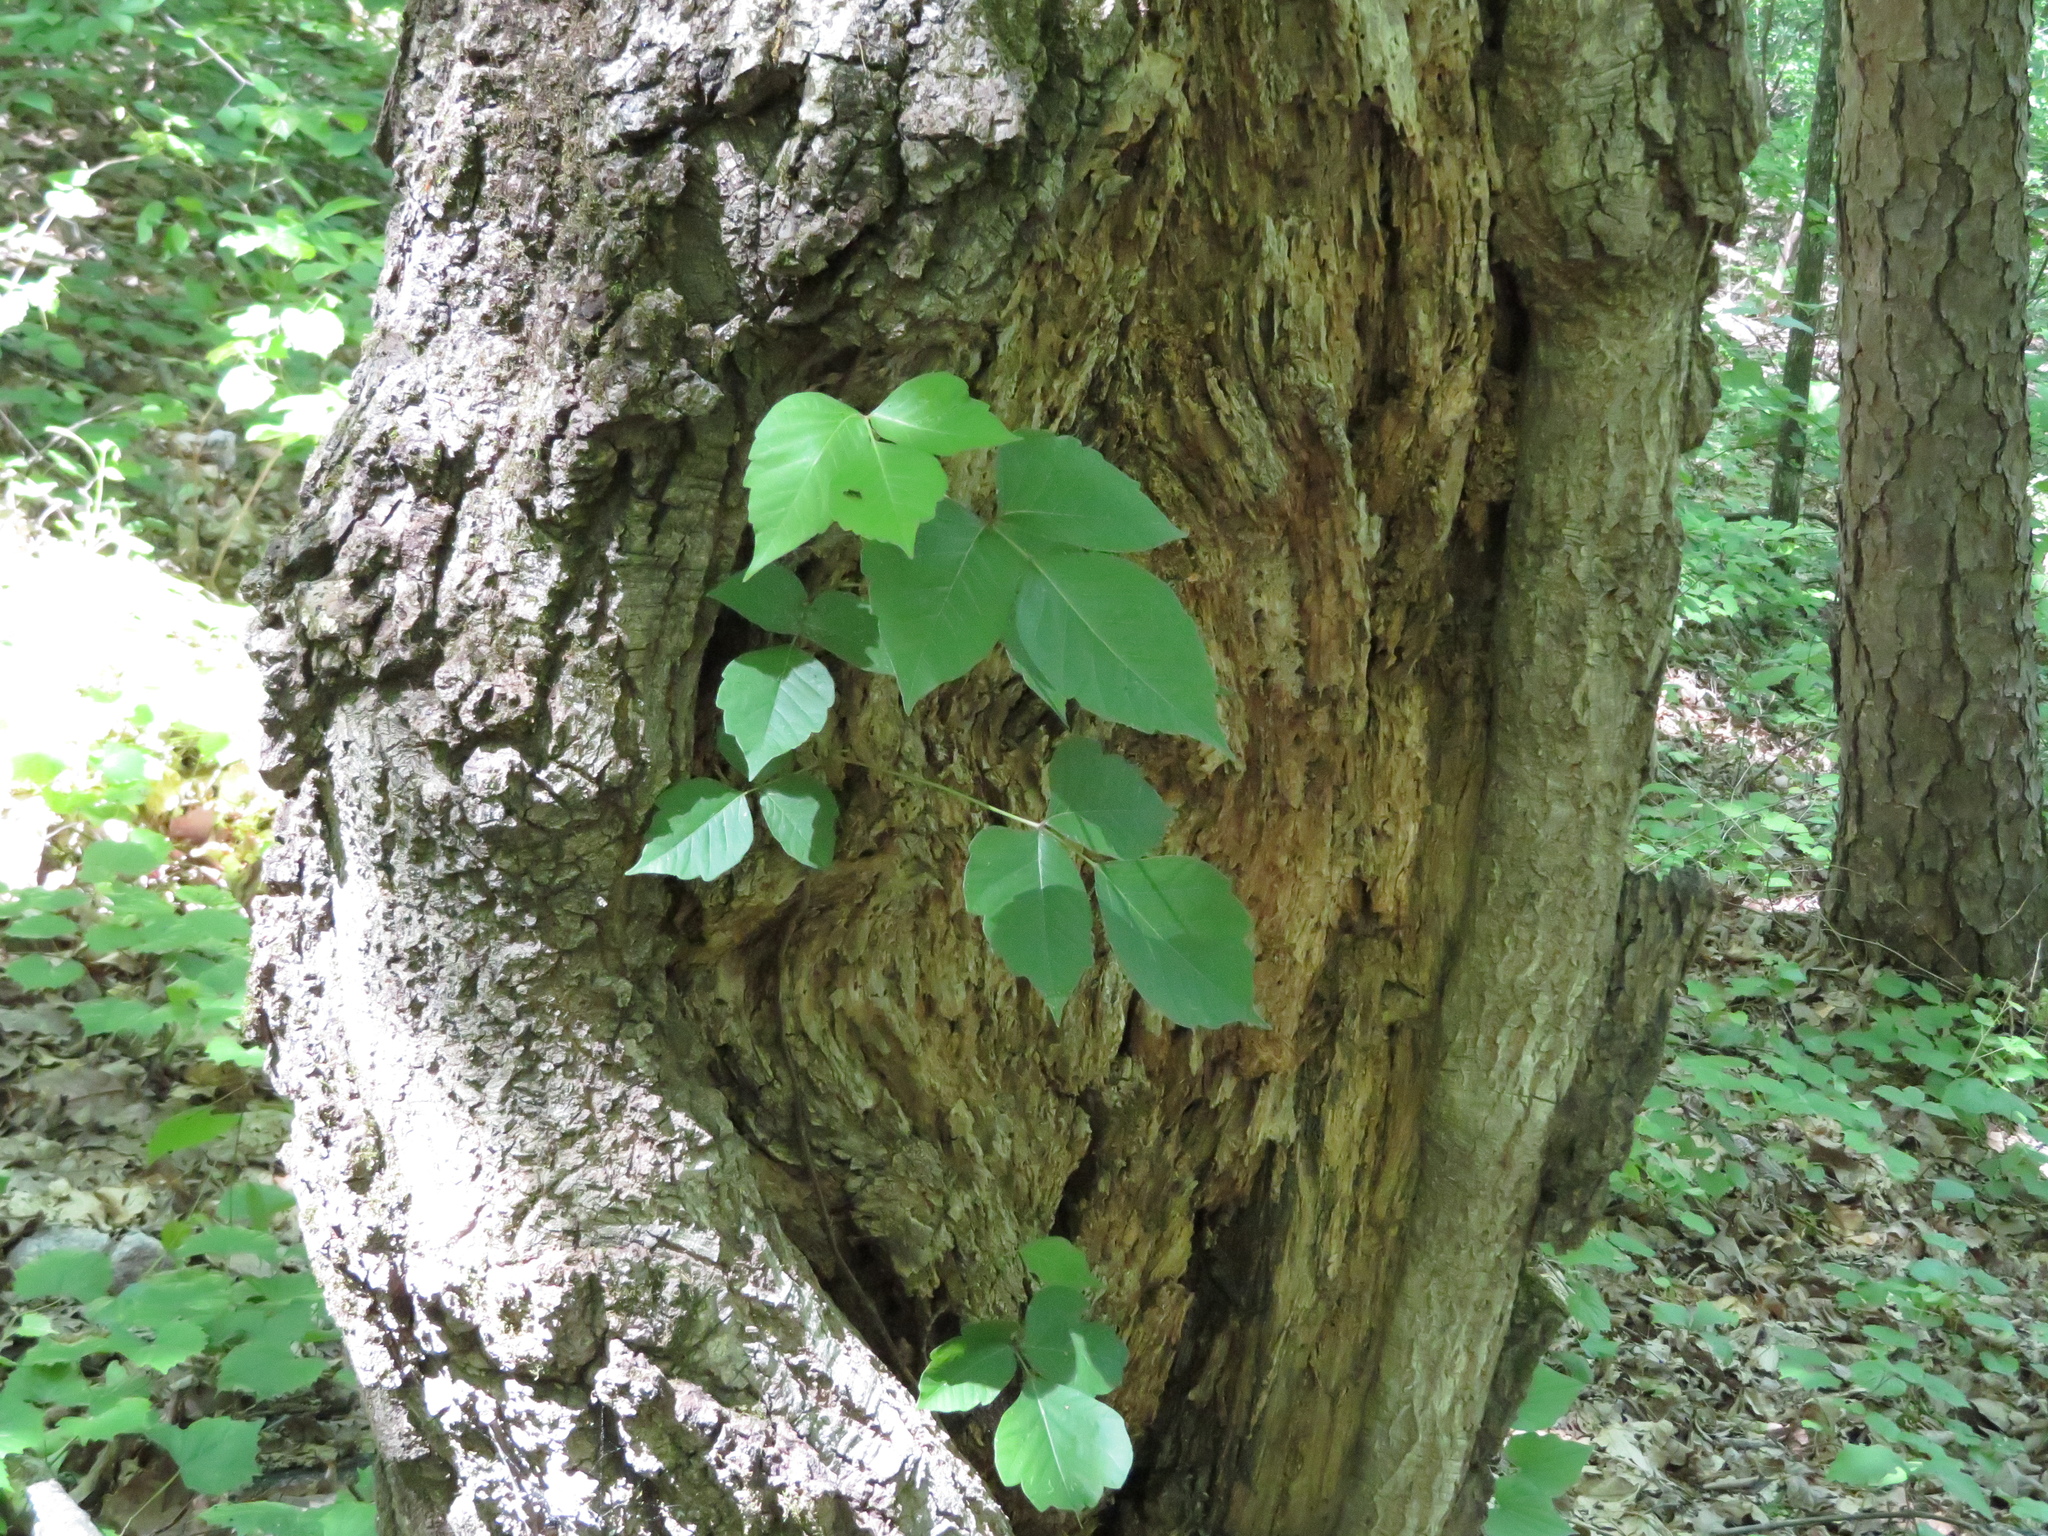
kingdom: Plantae
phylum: Tracheophyta
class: Magnoliopsida
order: Sapindales
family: Anacardiaceae
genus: Toxicodendron
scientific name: Toxicodendron radicans
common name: Poison ivy
